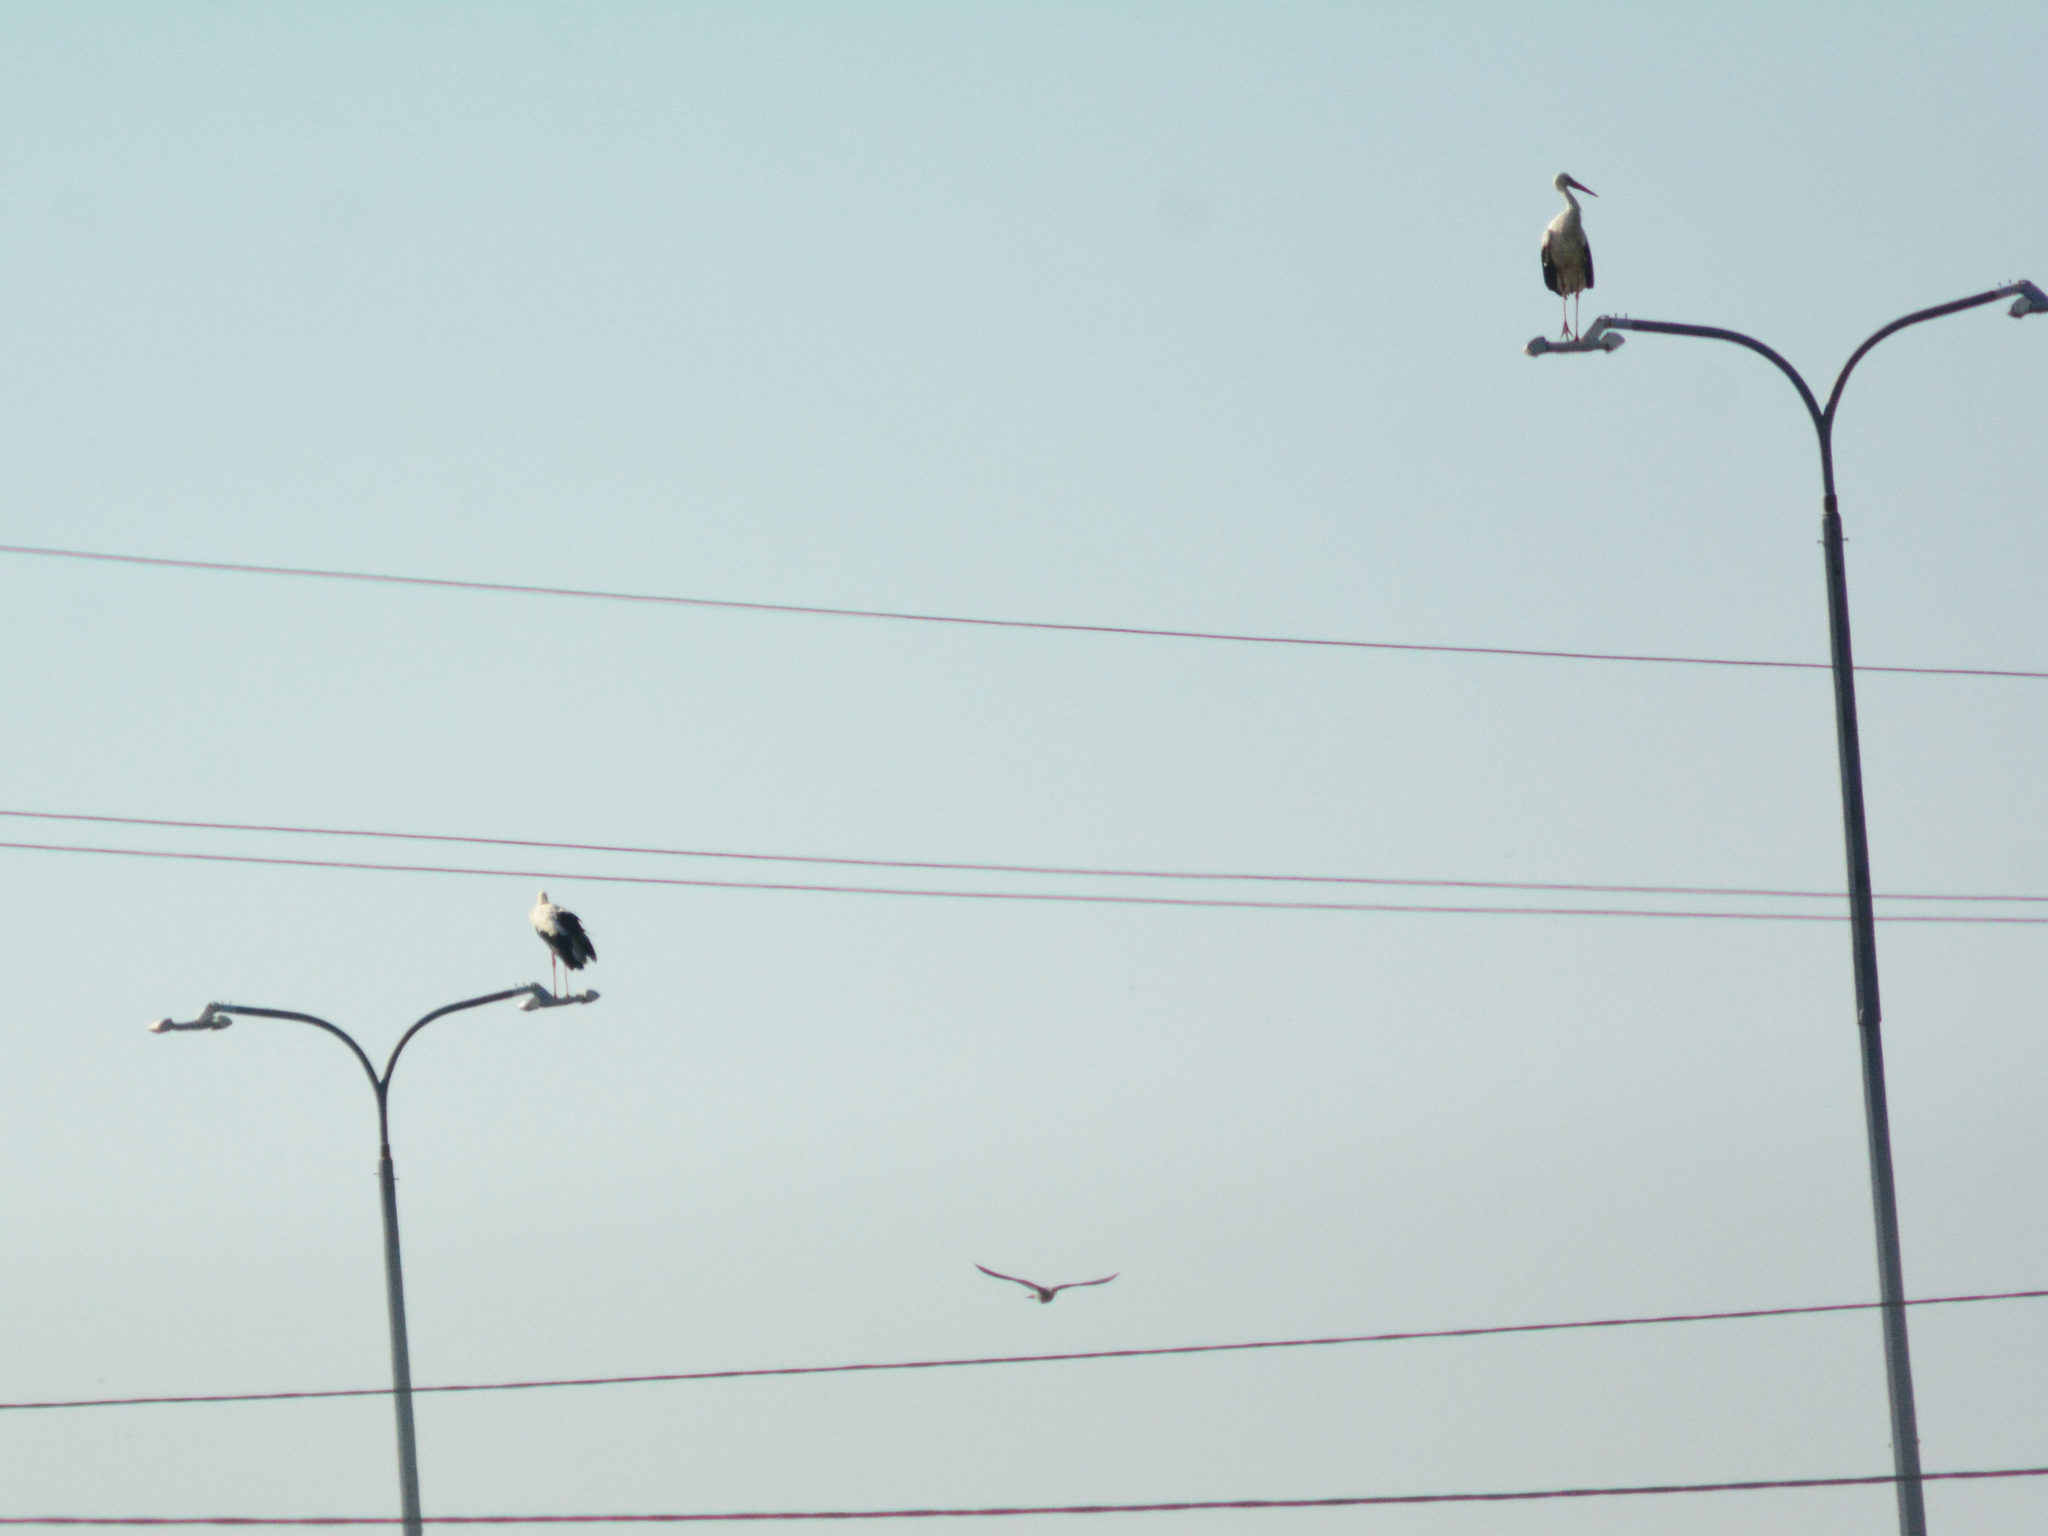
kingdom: Animalia
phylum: Chordata
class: Aves
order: Ciconiiformes
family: Ciconiidae
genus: Ciconia
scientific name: Ciconia ciconia
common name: White stork
